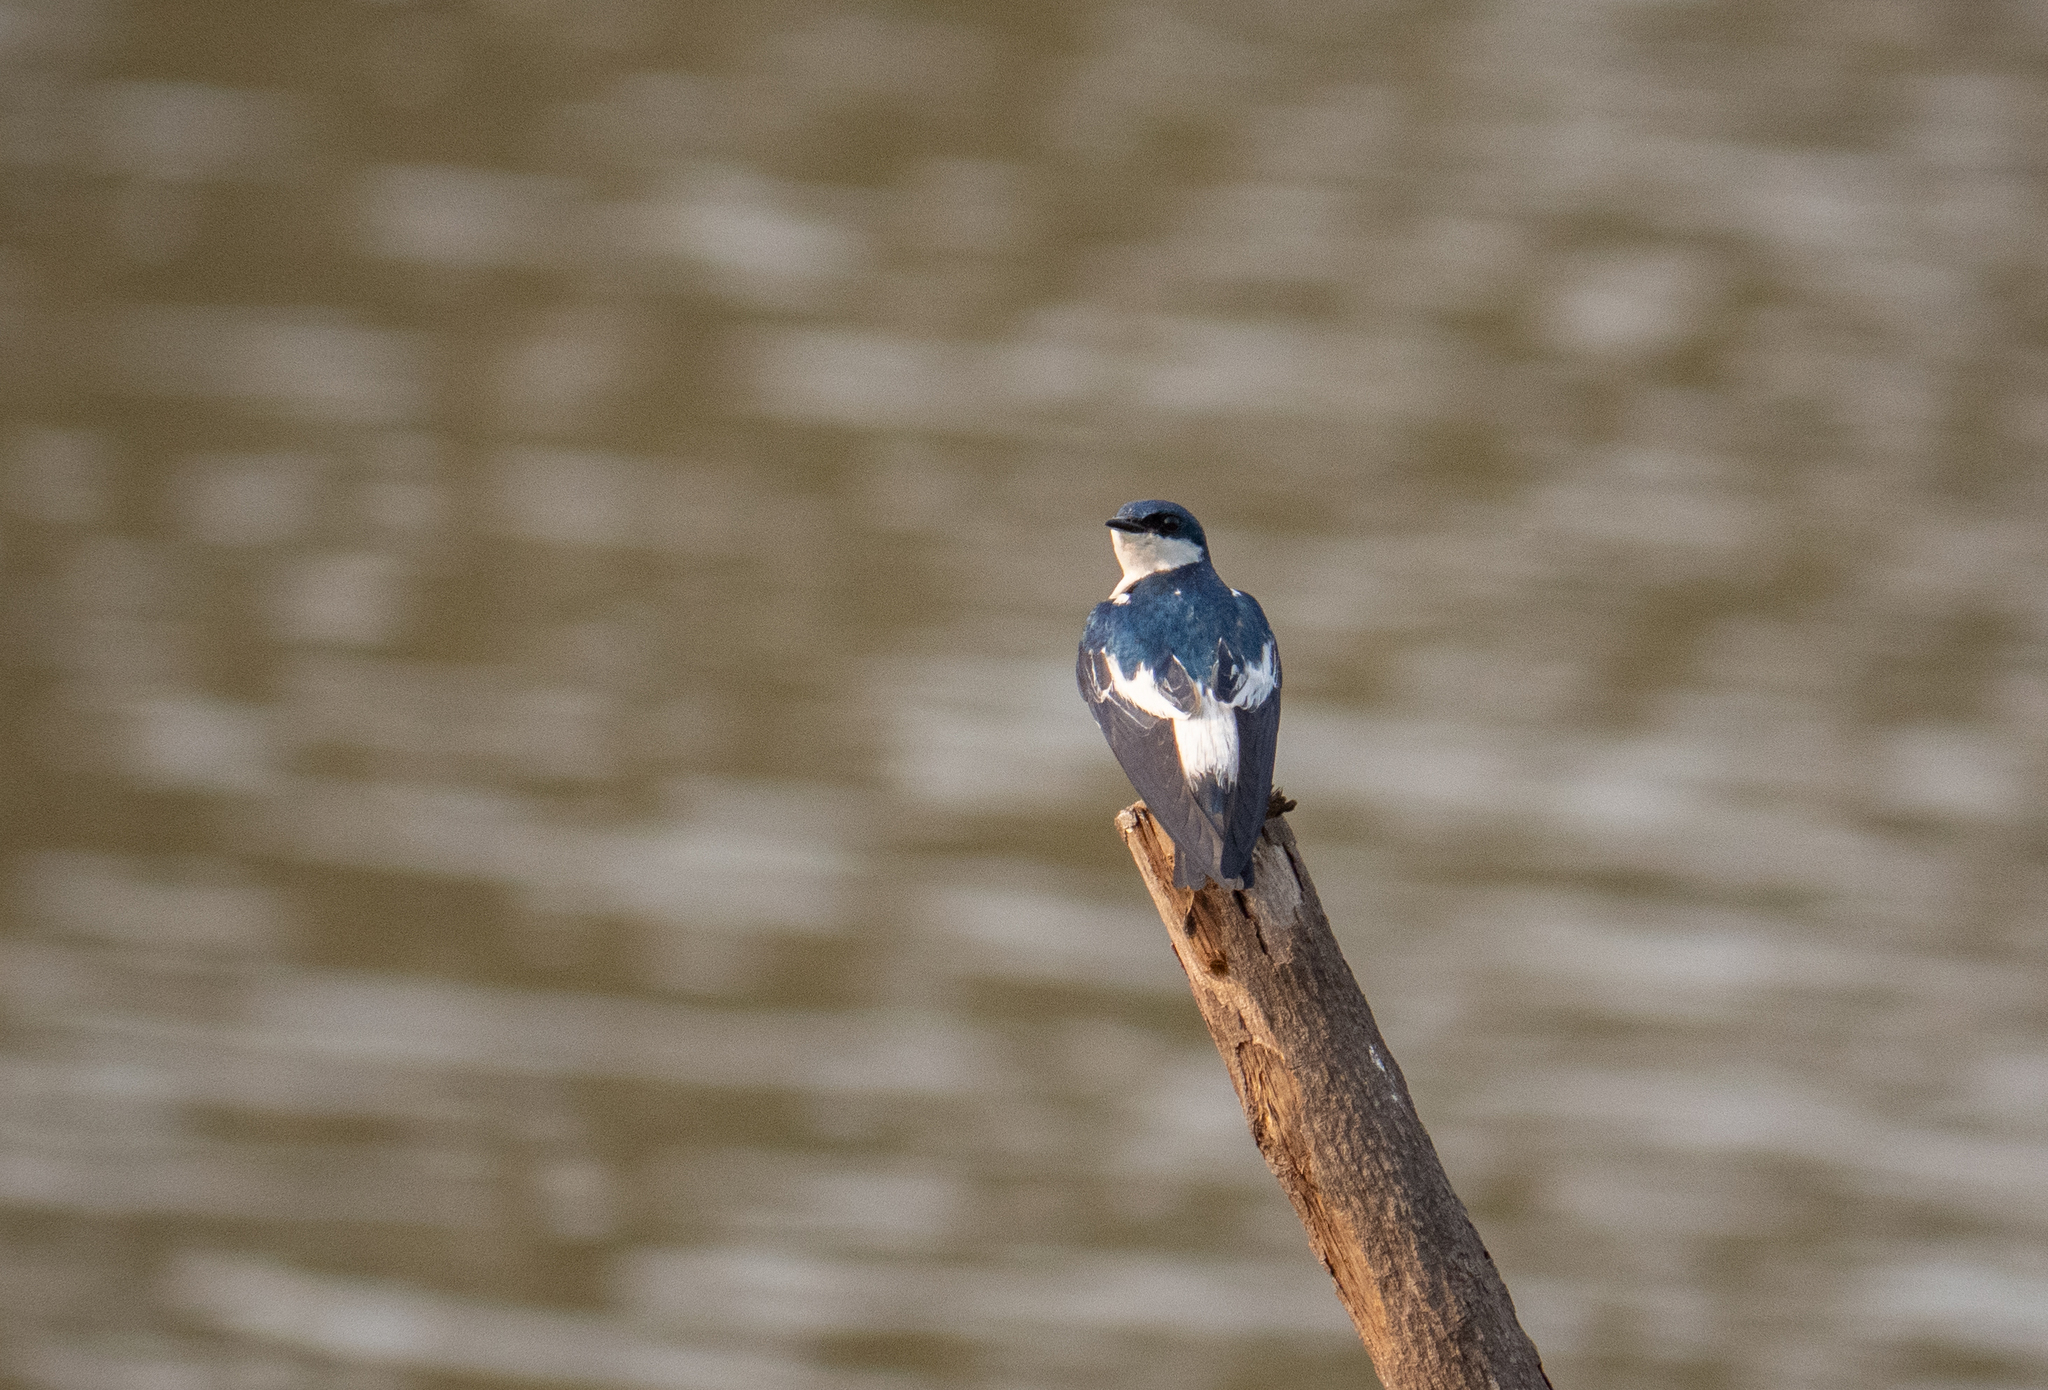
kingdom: Animalia
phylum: Chordata
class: Aves
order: Passeriformes
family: Hirundinidae
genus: Tachycineta
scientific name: Tachycineta albiventer
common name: White-winged swallow
